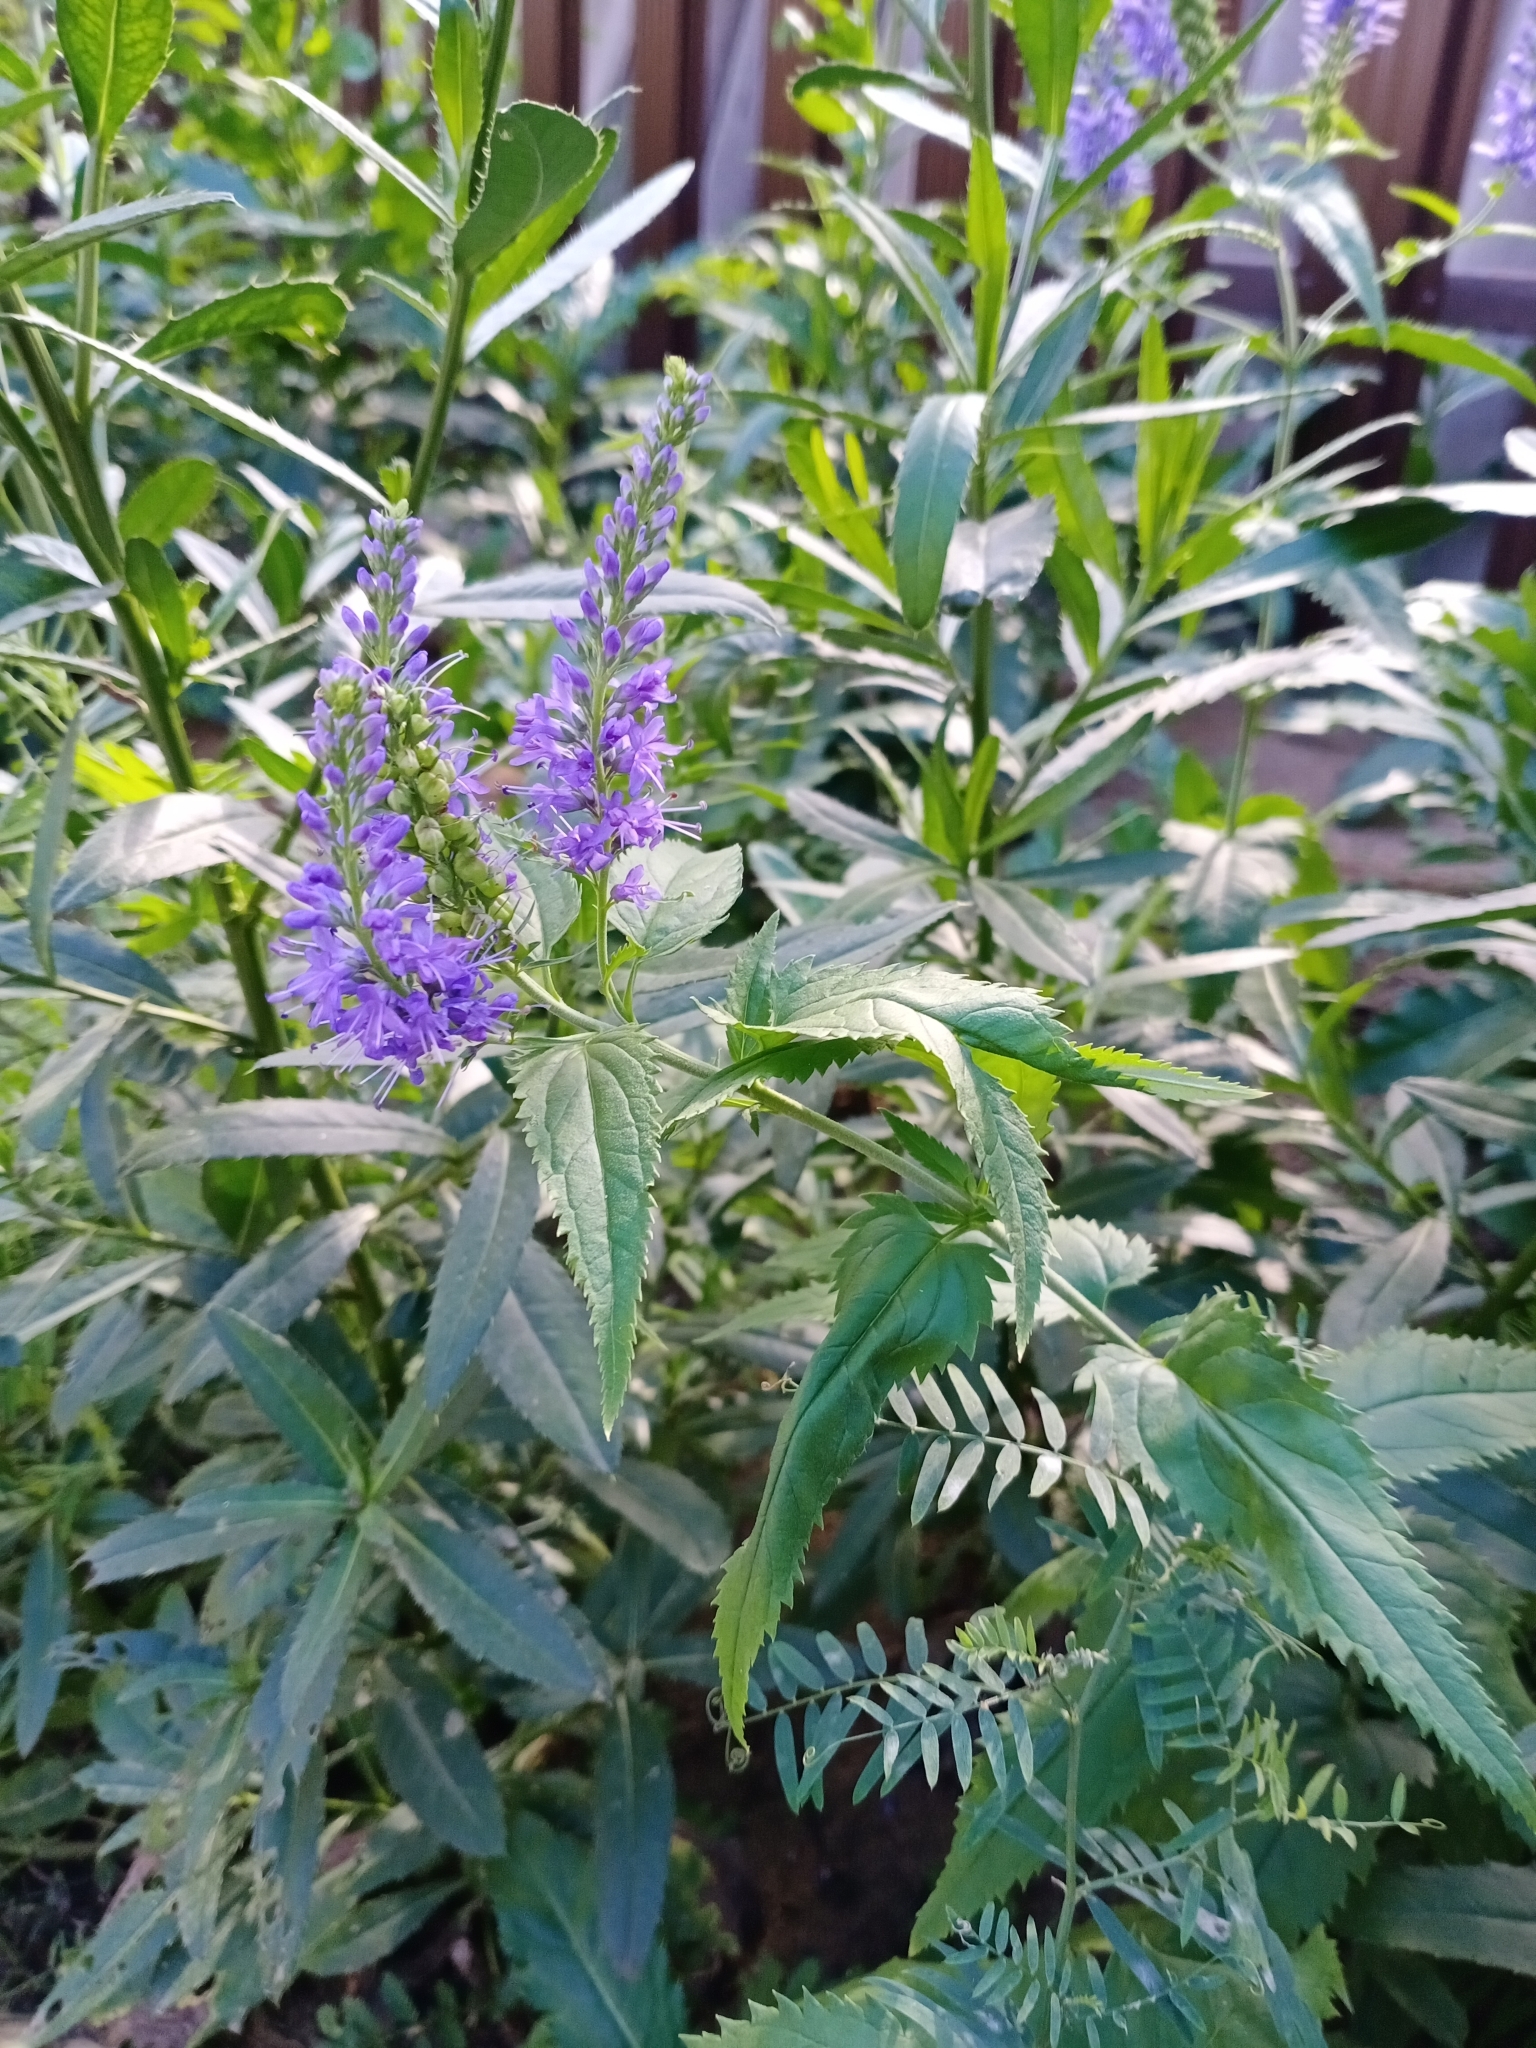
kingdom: Plantae
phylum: Tracheophyta
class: Magnoliopsida
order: Lamiales
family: Plantaginaceae
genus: Veronica
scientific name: Veronica longifolia
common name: Garden speedwell
